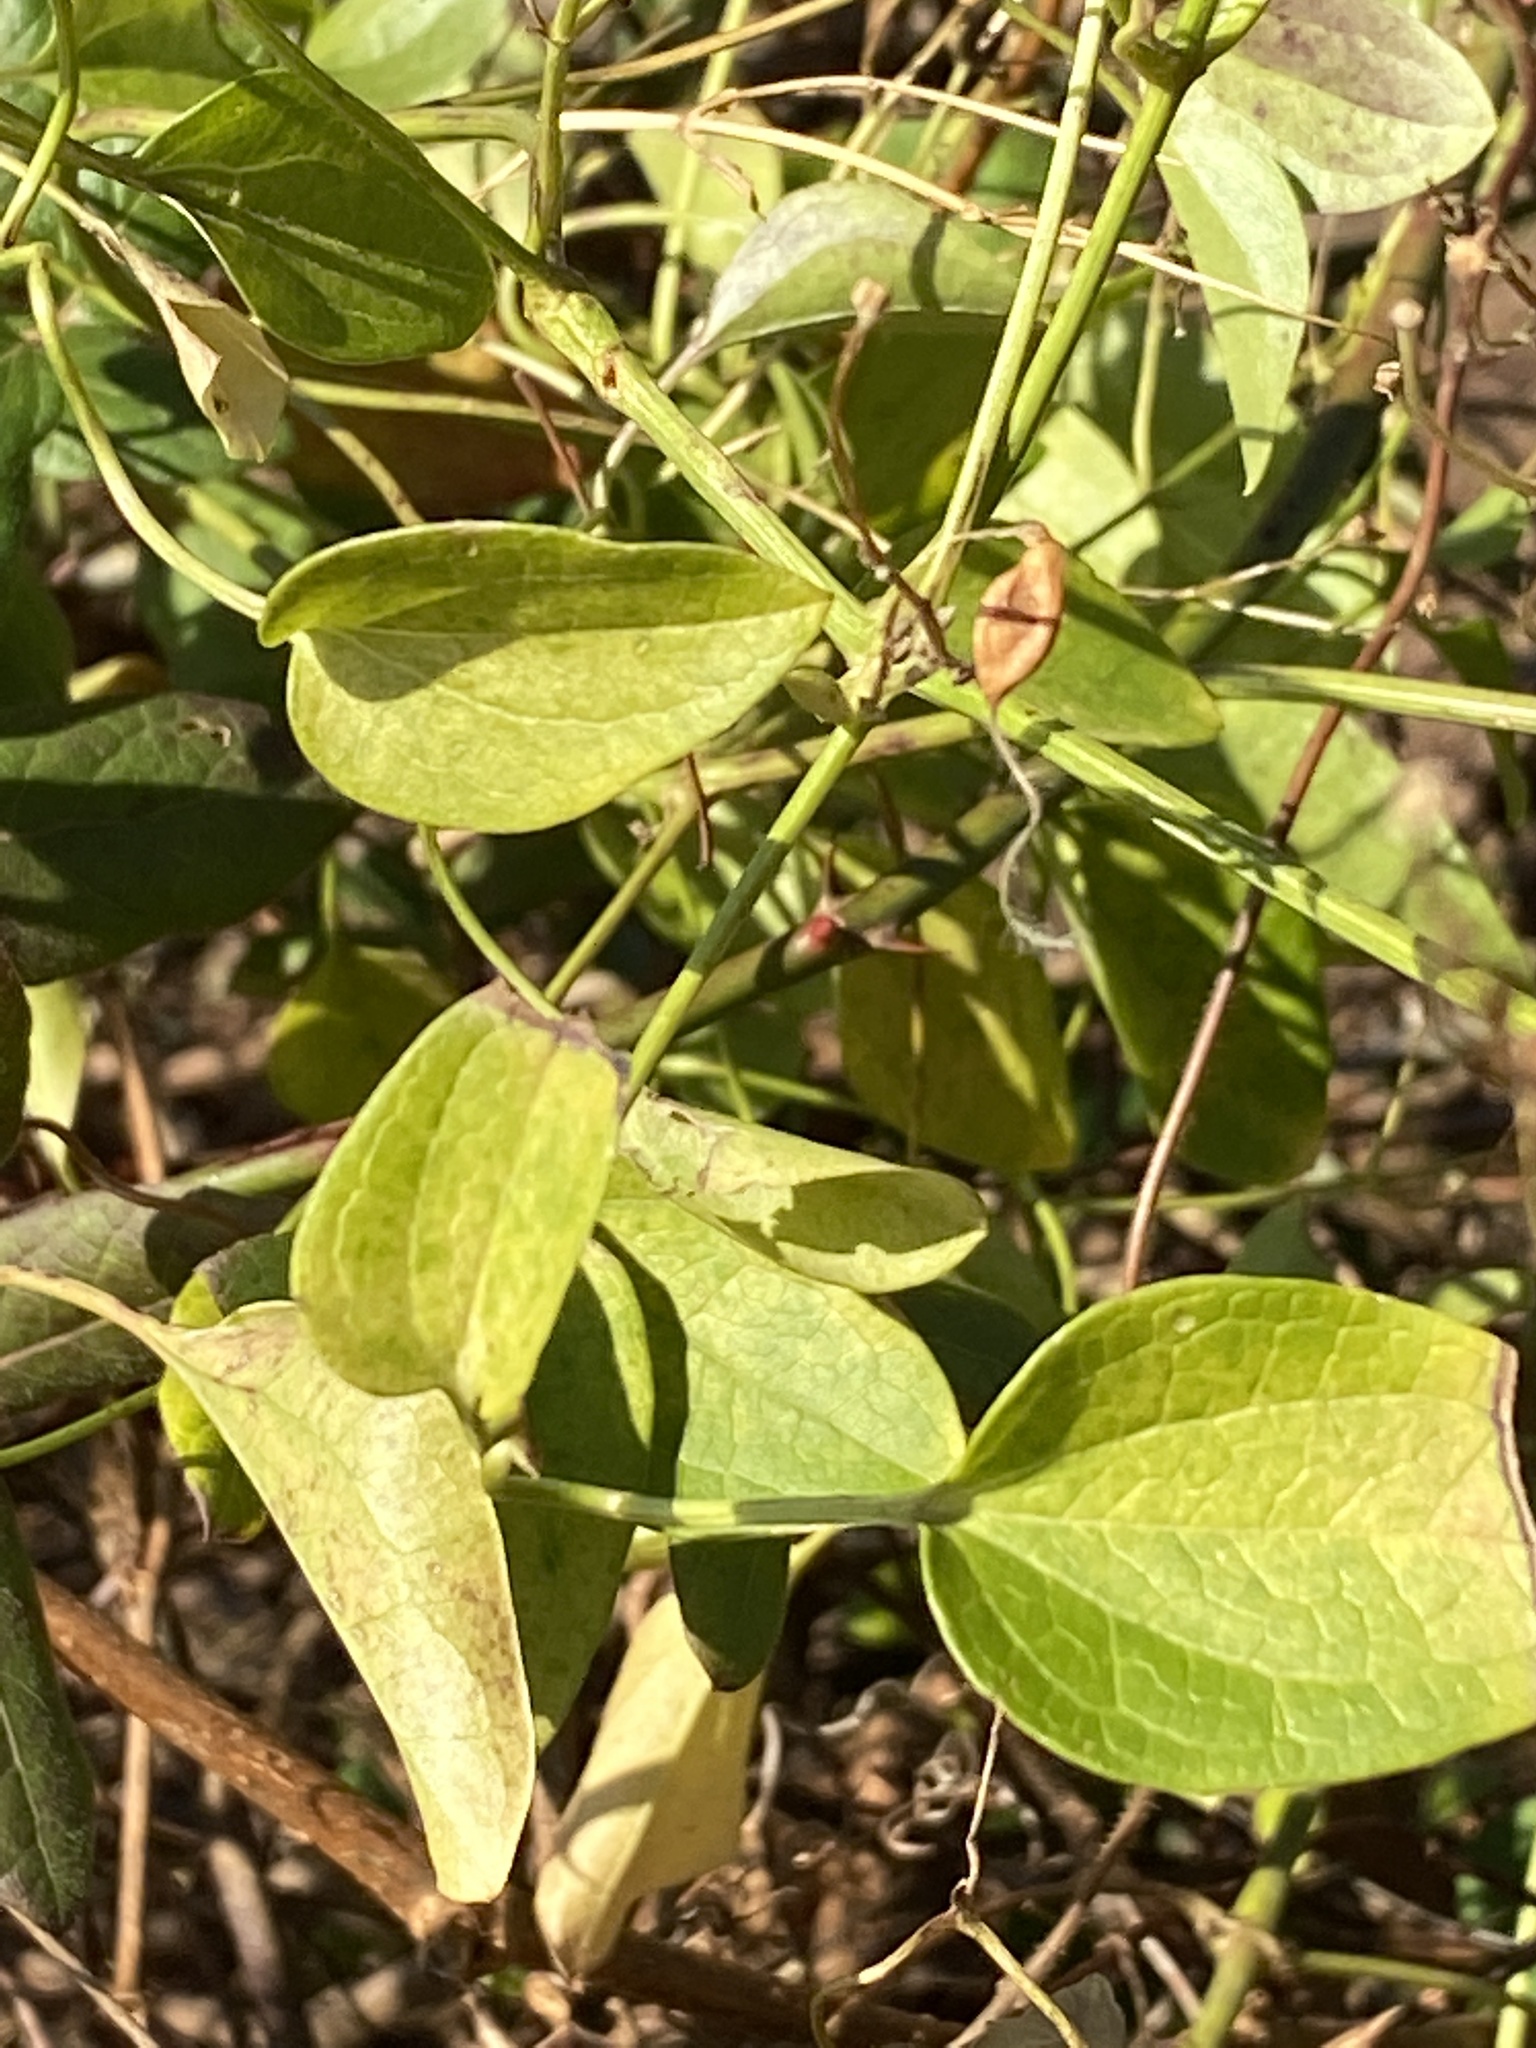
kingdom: Plantae
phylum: Tracheophyta
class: Magnoliopsida
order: Ranunculales
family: Ranunculaceae
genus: Clematis
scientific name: Clematis terniflora
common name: Sweet autumn clematis
